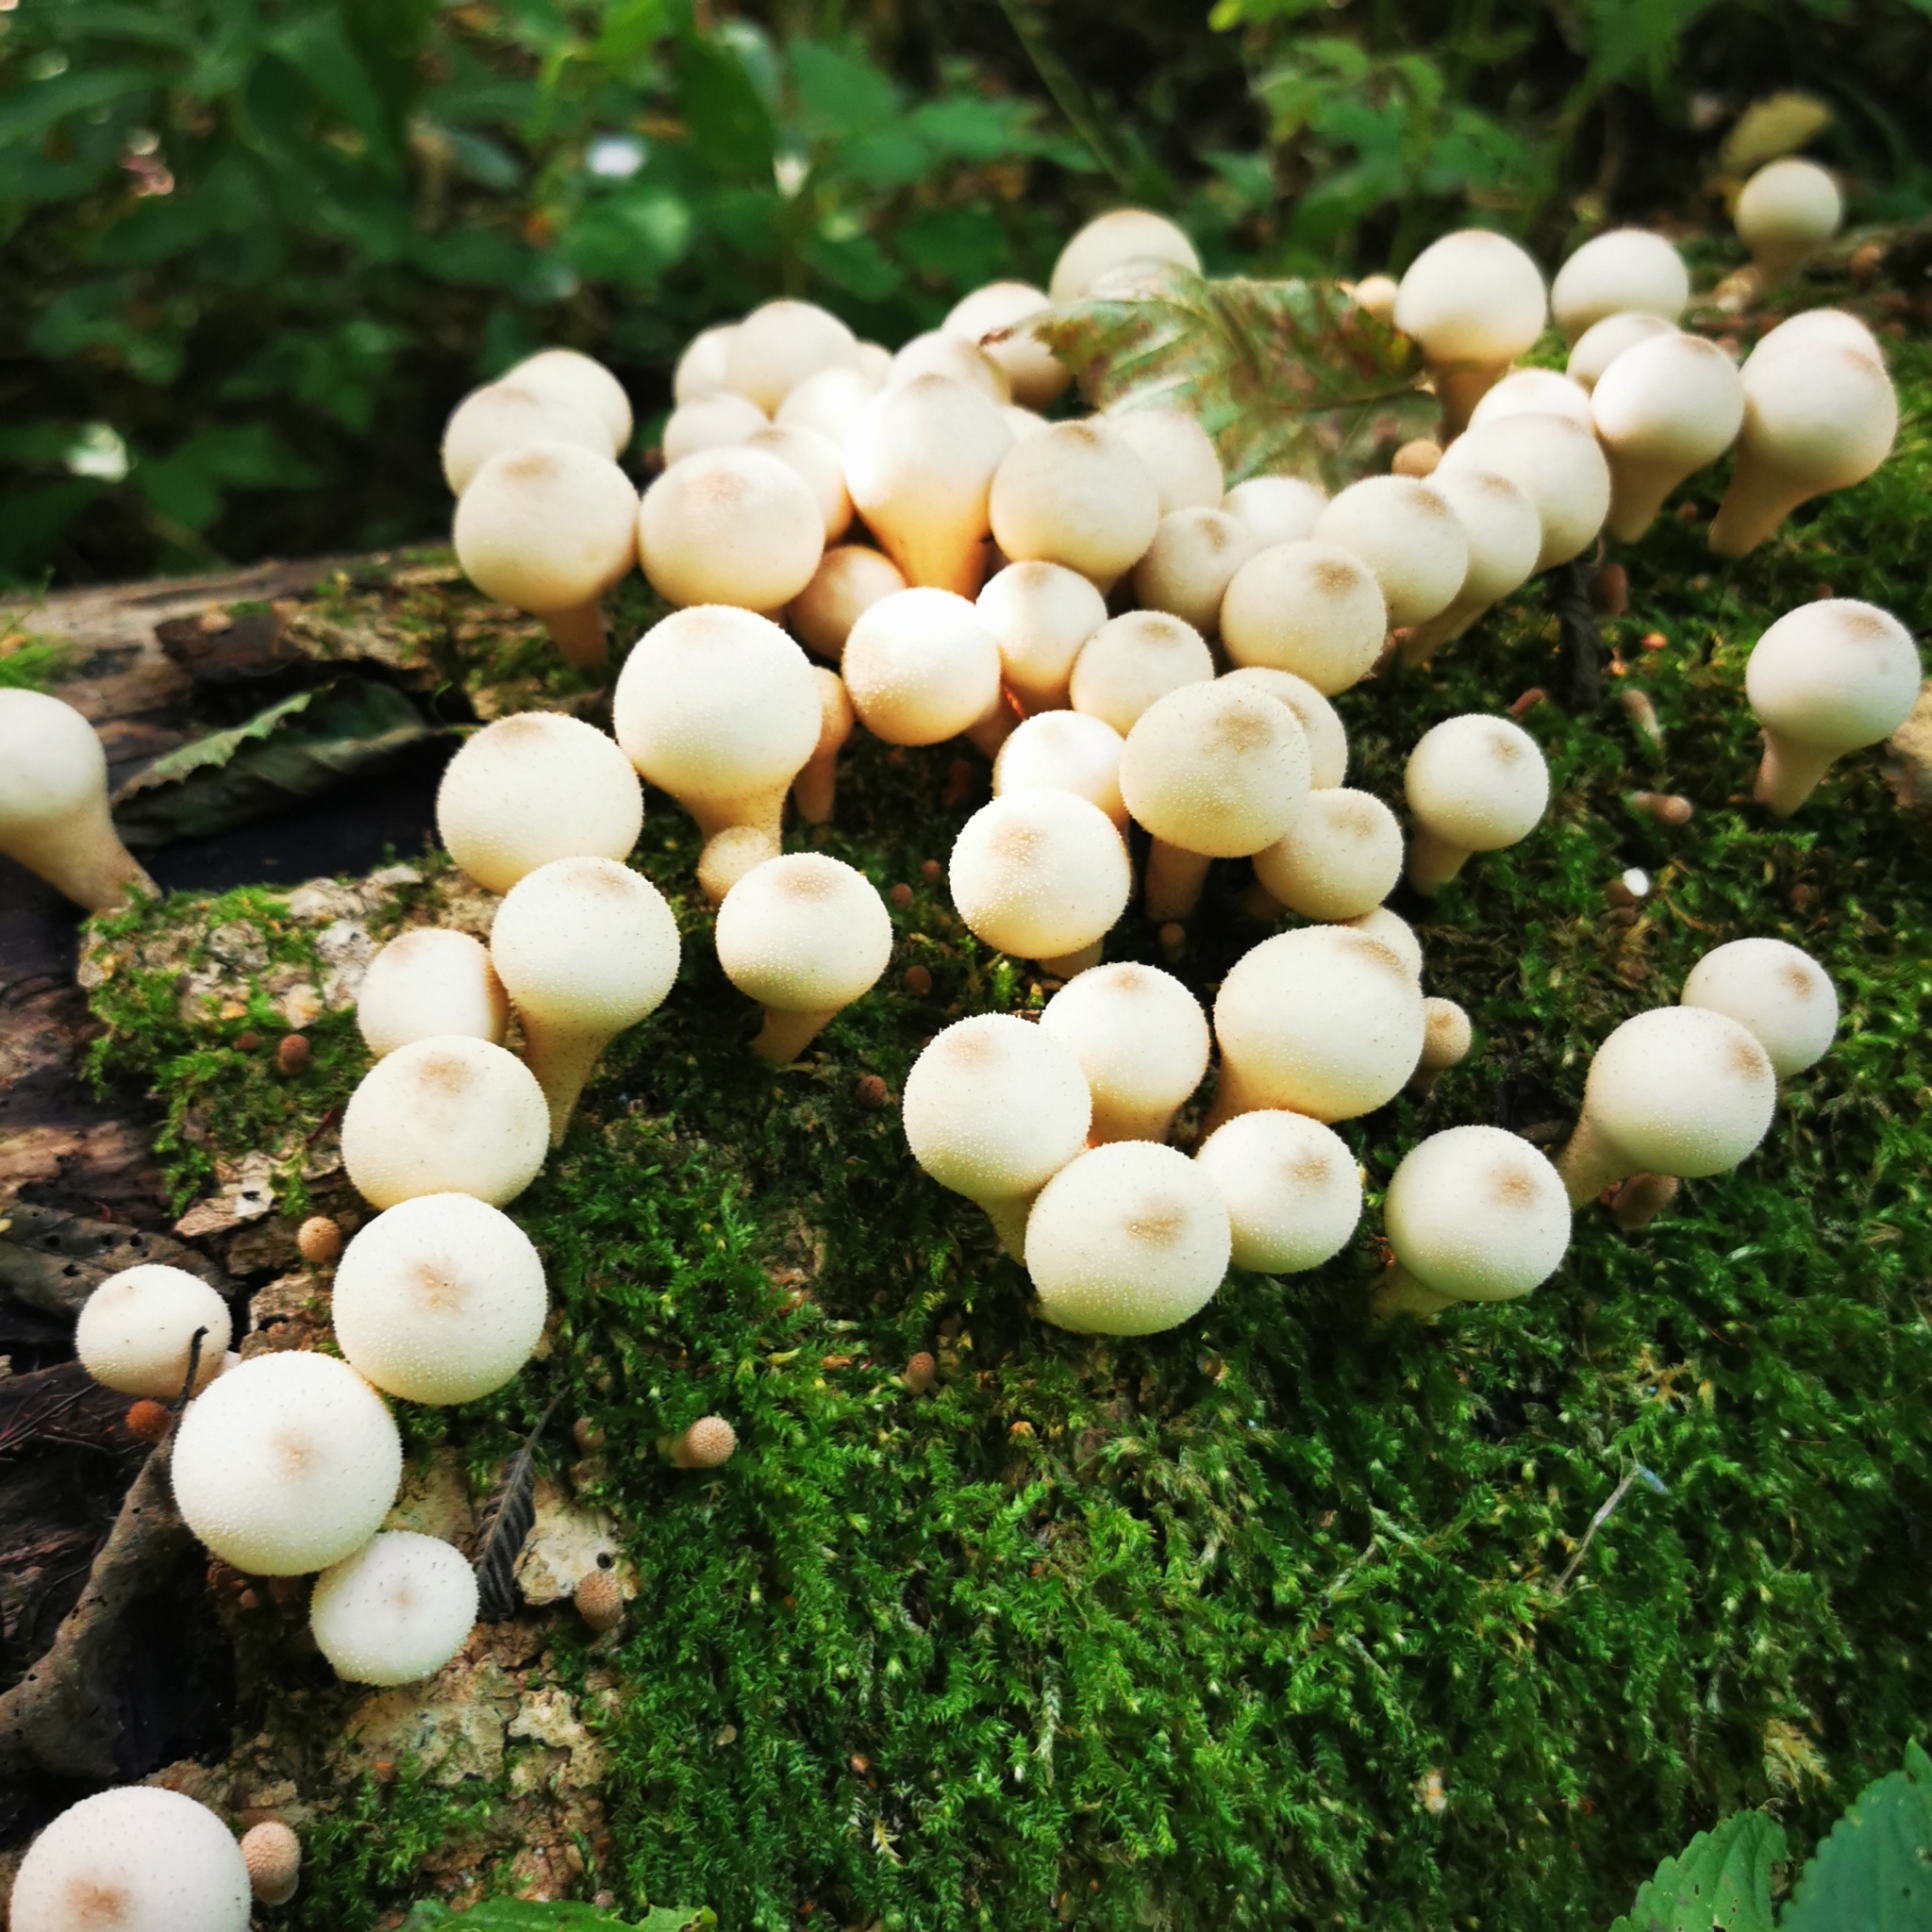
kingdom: Fungi
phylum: Basidiomycota
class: Agaricomycetes
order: Agaricales
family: Lycoperdaceae
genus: Apioperdon
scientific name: Apioperdon pyriforme
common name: Pear-shaped puffball
